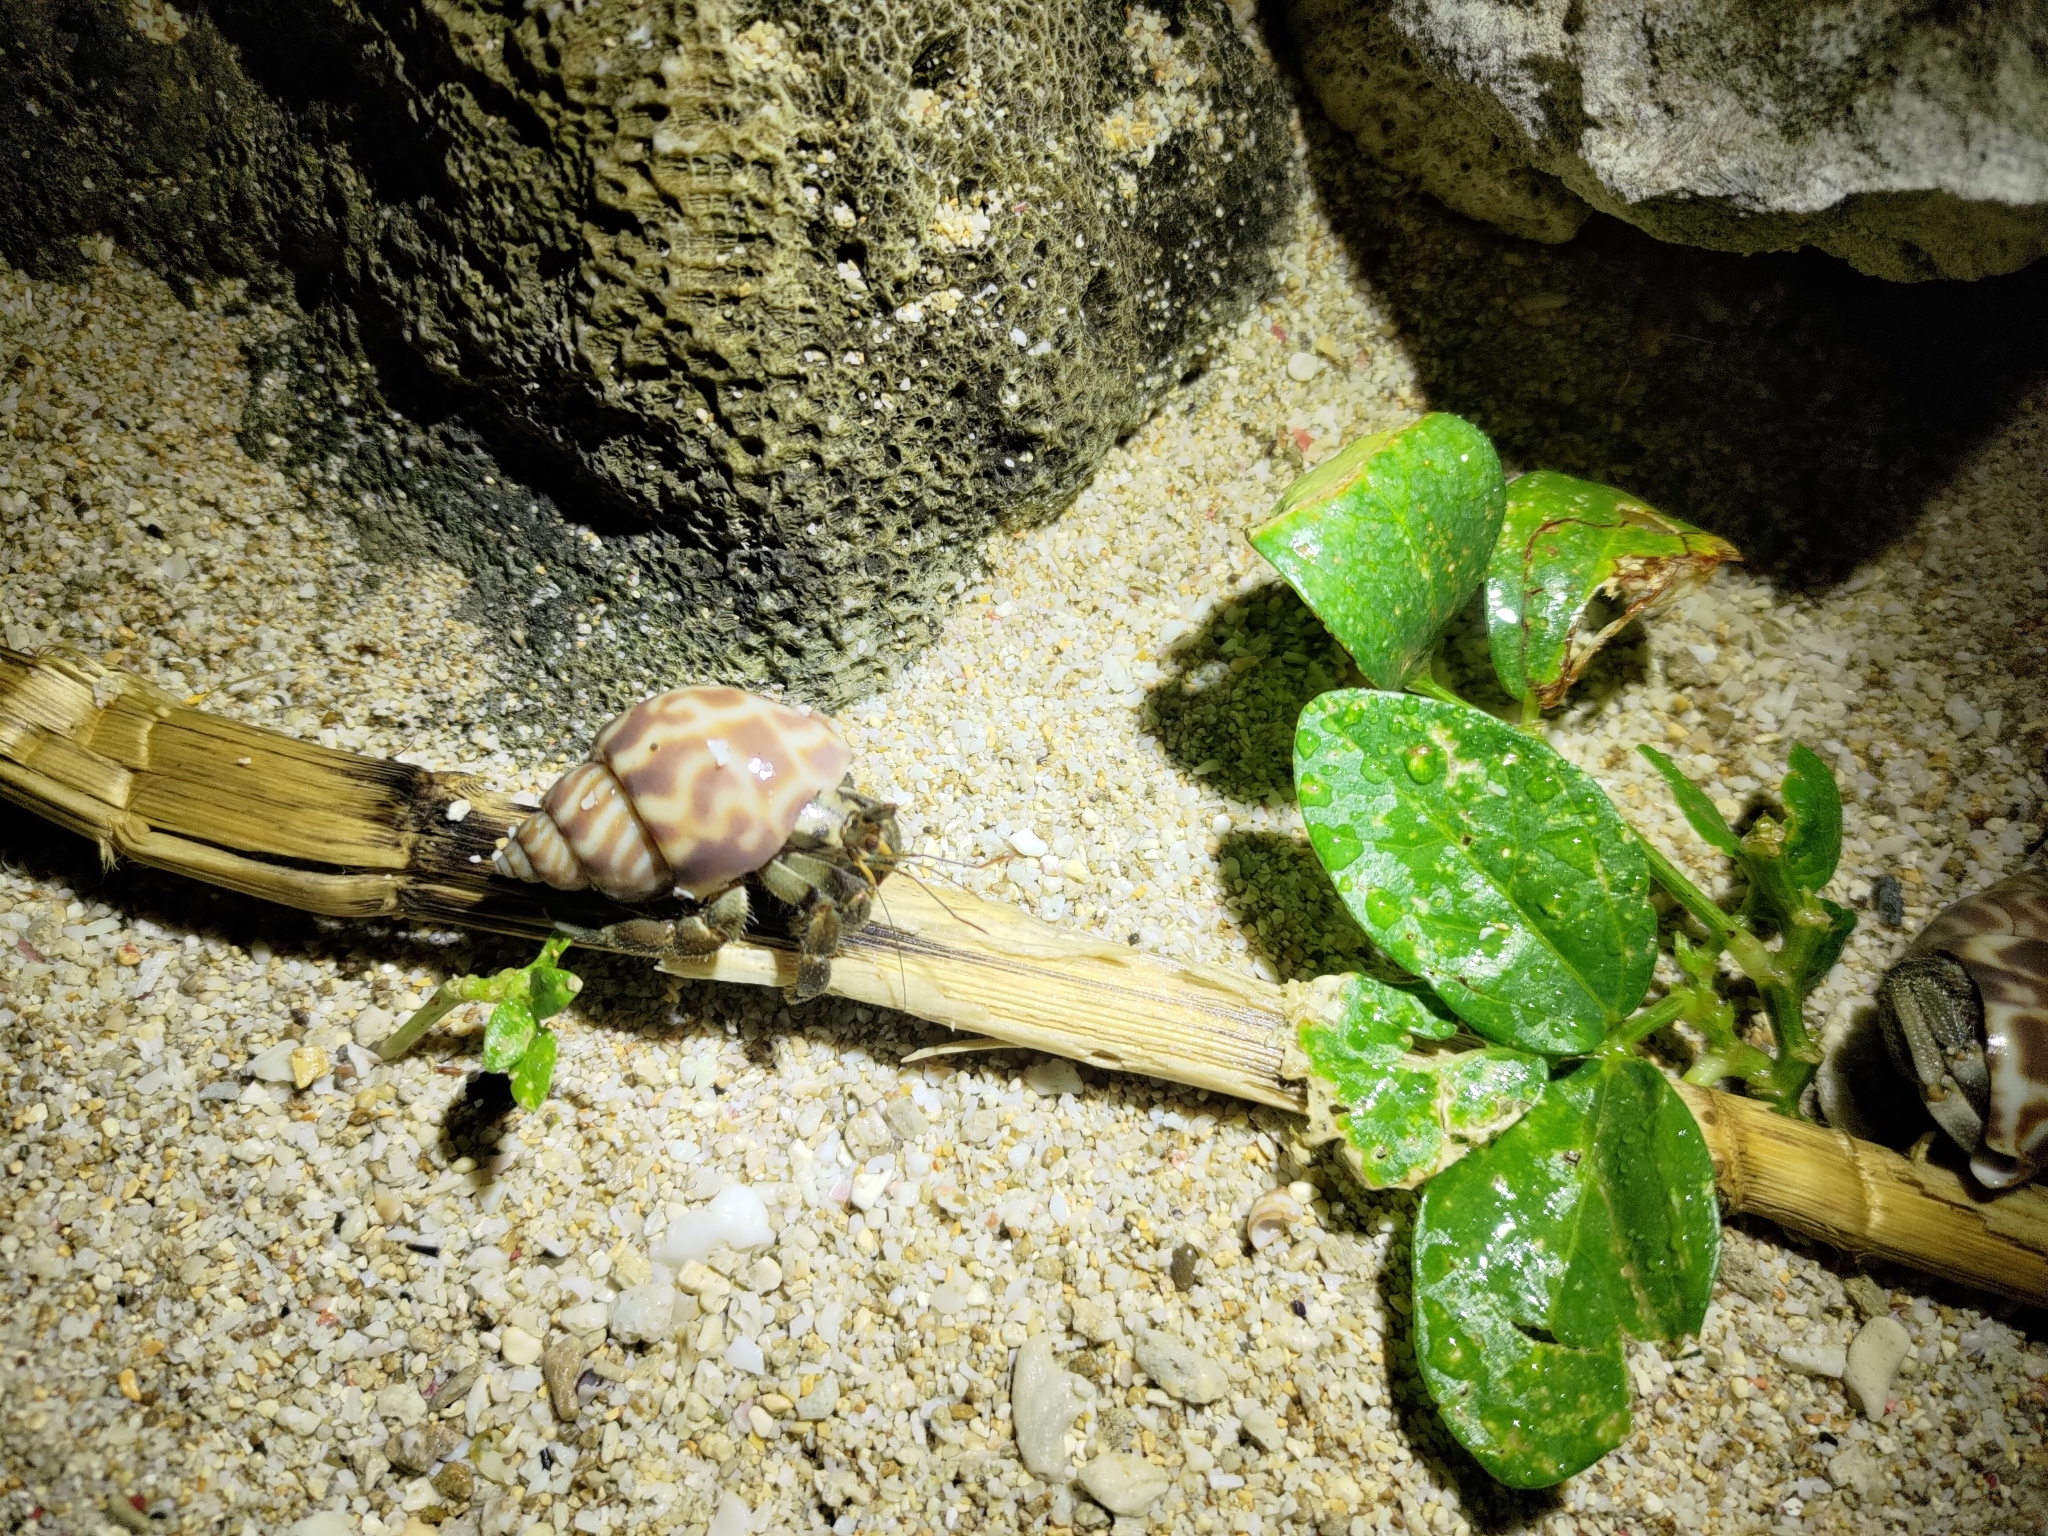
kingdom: Animalia
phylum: Arthropoda
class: Malacostraca
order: Decapoda
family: Coenobitidae
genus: Coenobita
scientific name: Coenobita rugosus
